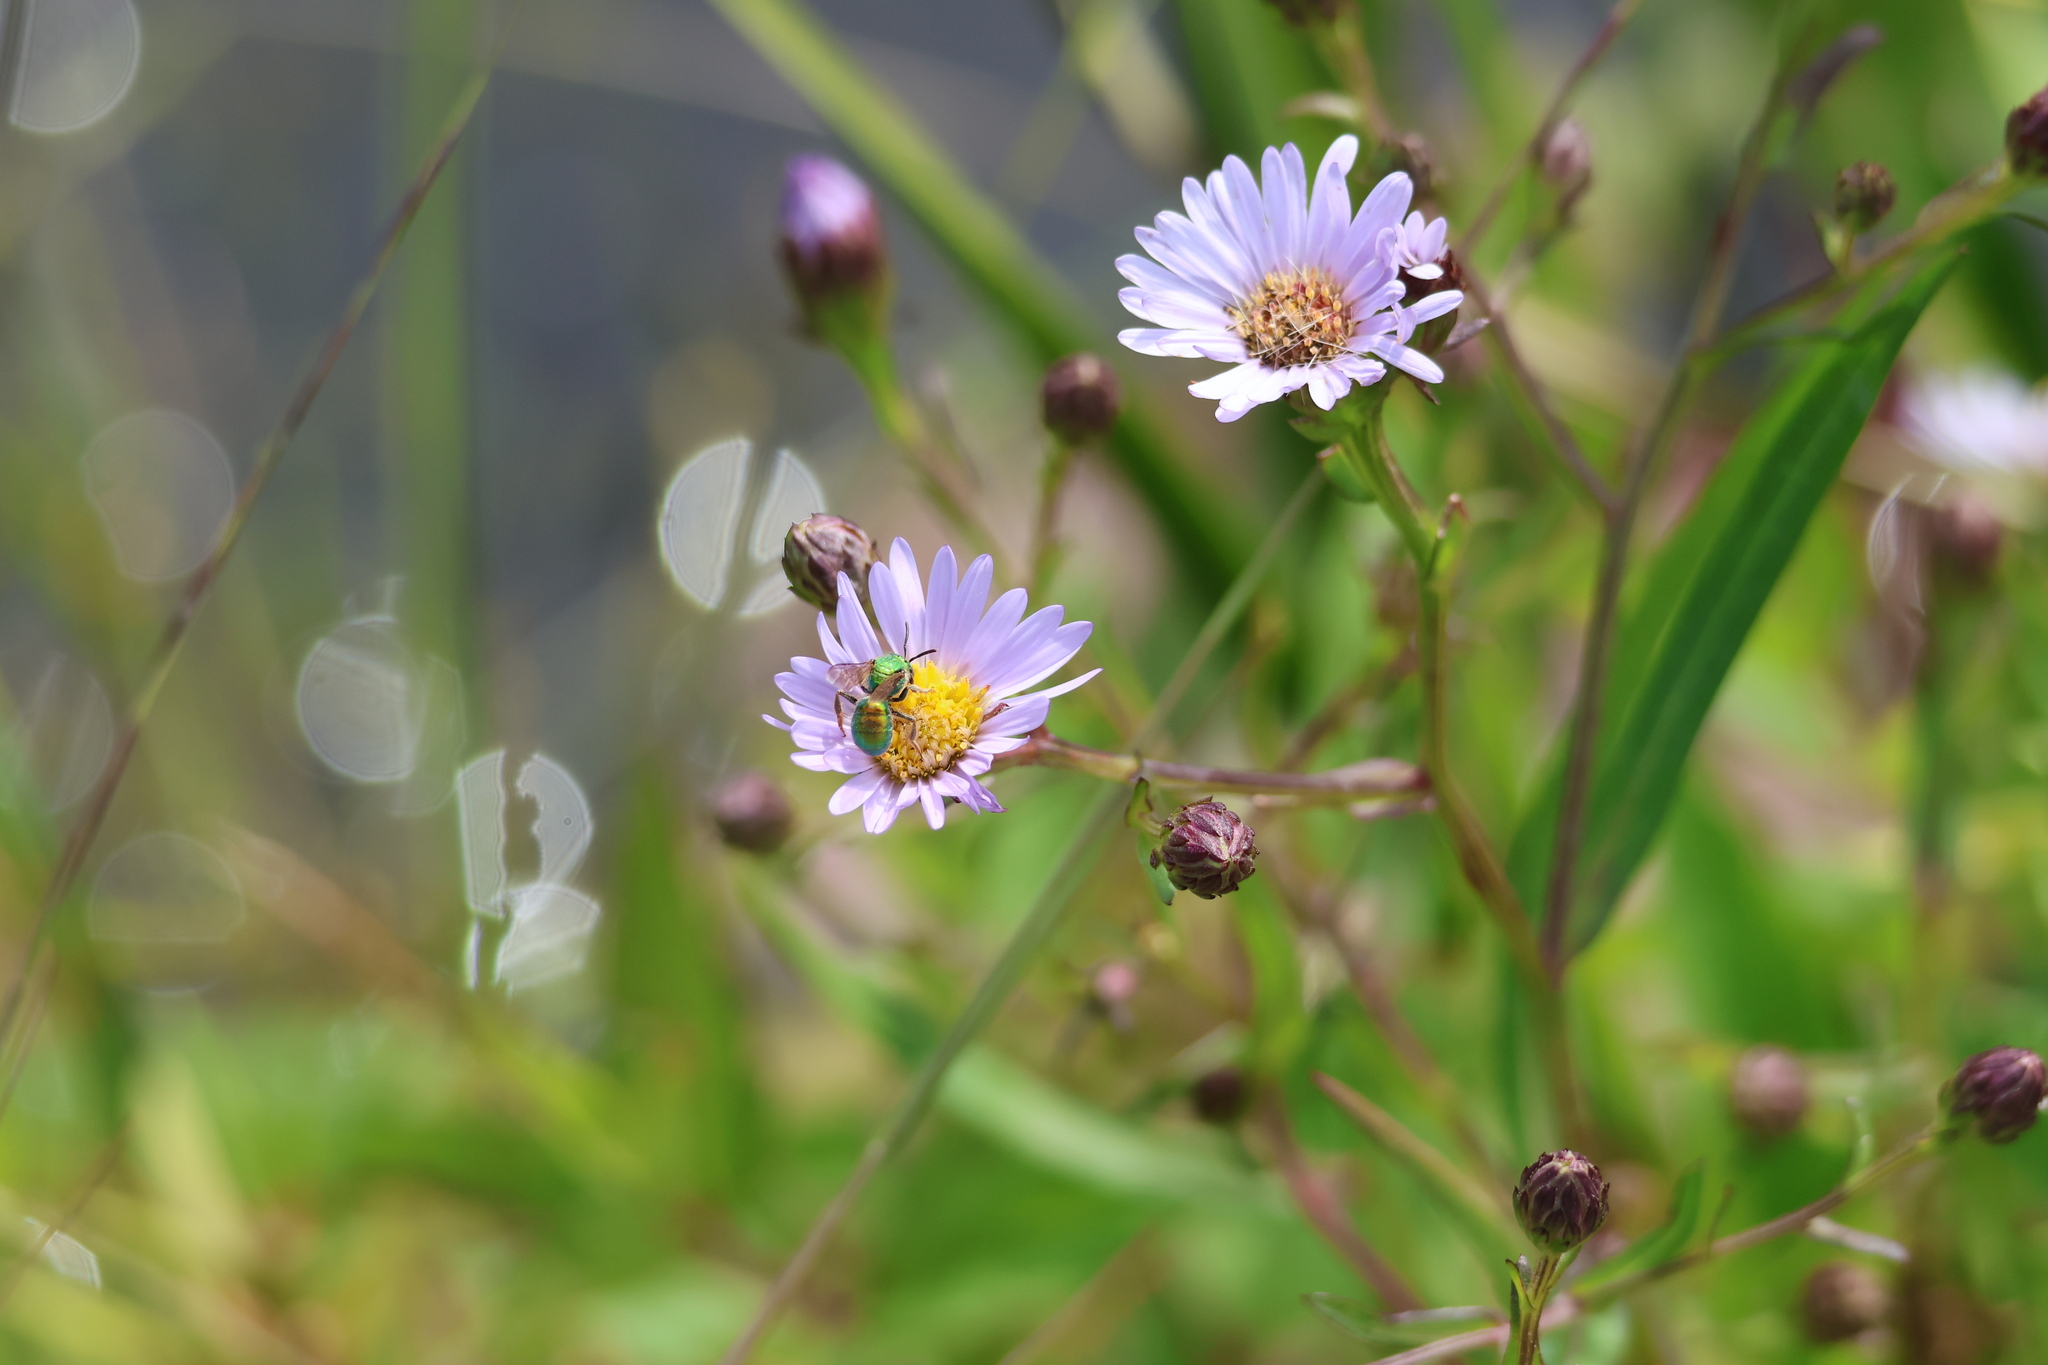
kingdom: Plantae
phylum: Tracheophyta
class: Magnoliopsida
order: Asterales
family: Asteraceae
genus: Symphyotrichum
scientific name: Symphyotrichum novi-belgii
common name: Michaelmas daisy
